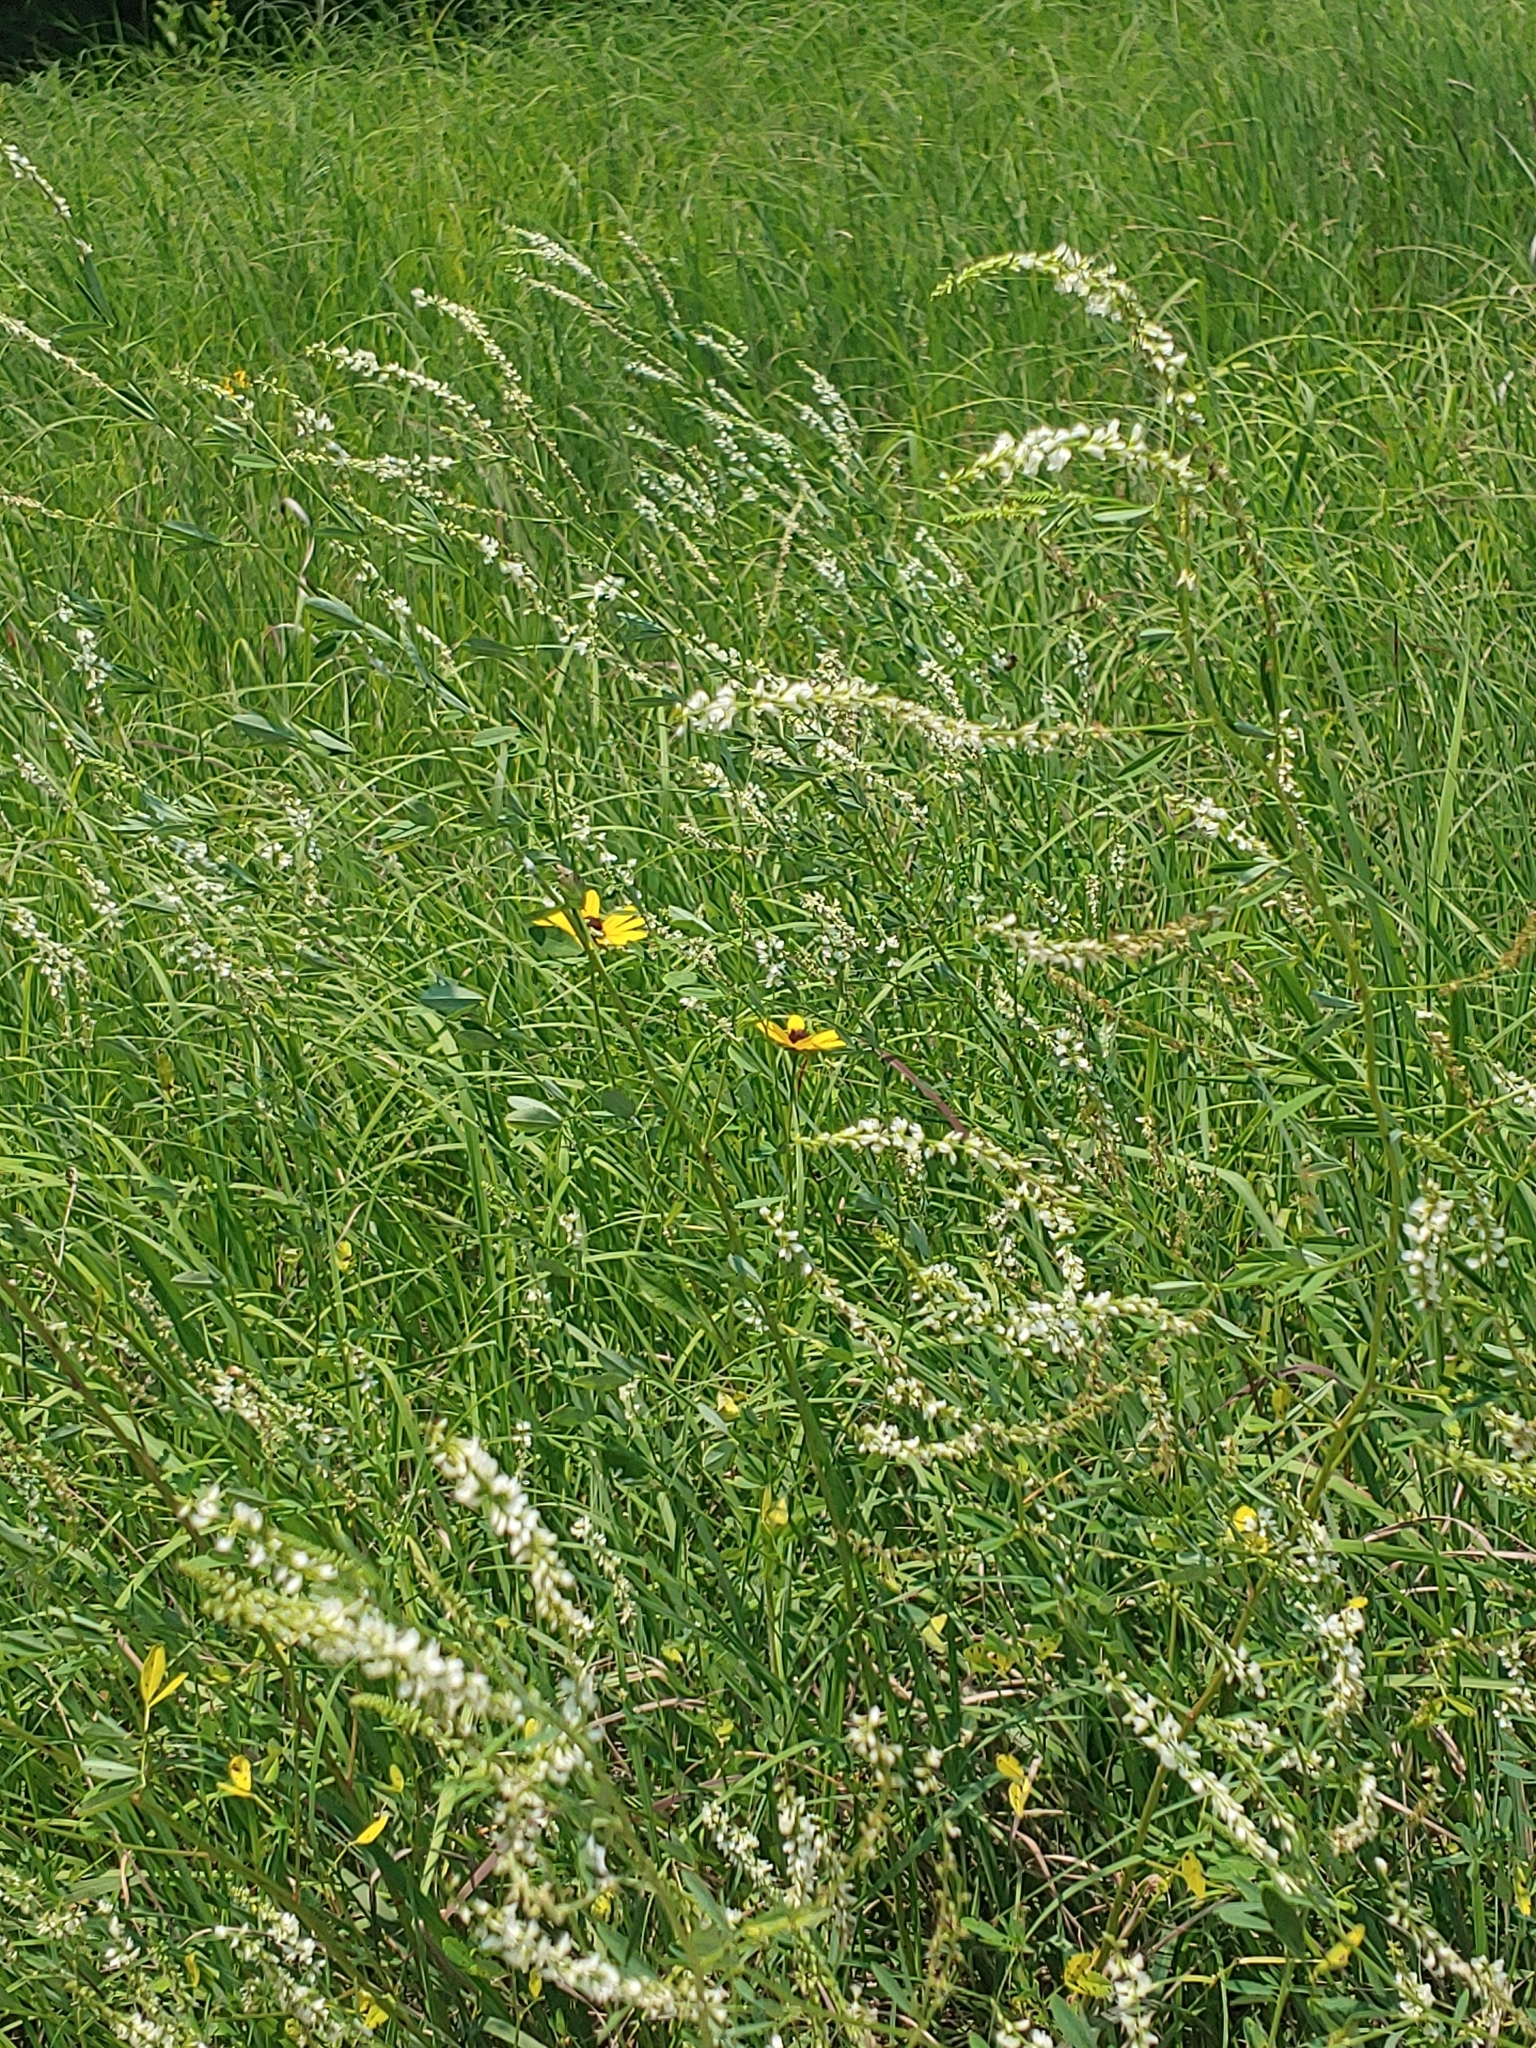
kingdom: Plantae
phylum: Tracheophyta
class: Magnoliopsida
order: Fabales
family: Fabaceae
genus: Melilotus
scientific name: Melilotus albus
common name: White melilot
